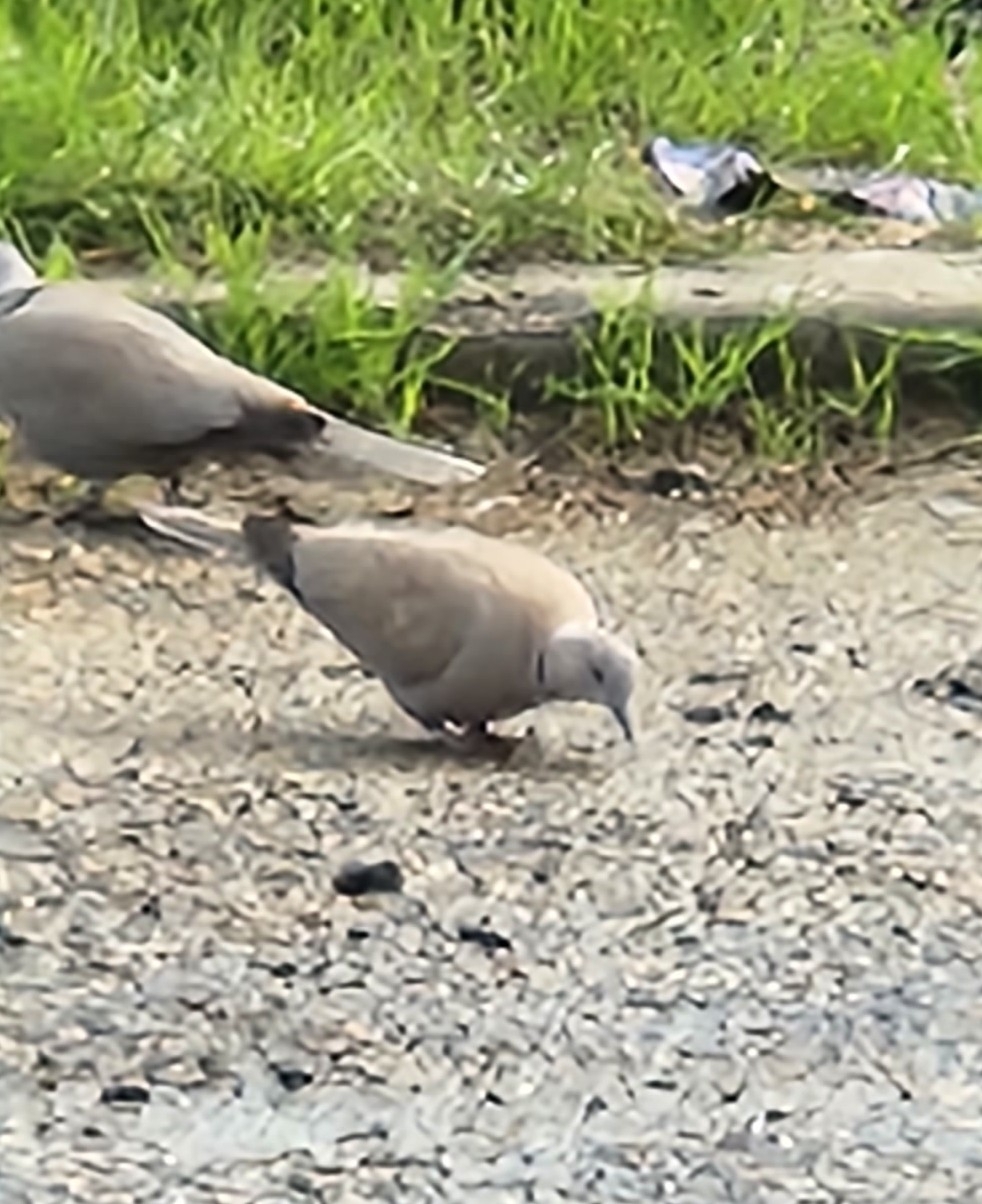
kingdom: Animalia
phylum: Chordata
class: Aves
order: Columbiformes
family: Columbidae
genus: Streptopelia
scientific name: Streptopelia decaocto
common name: Eurasian collared dove
